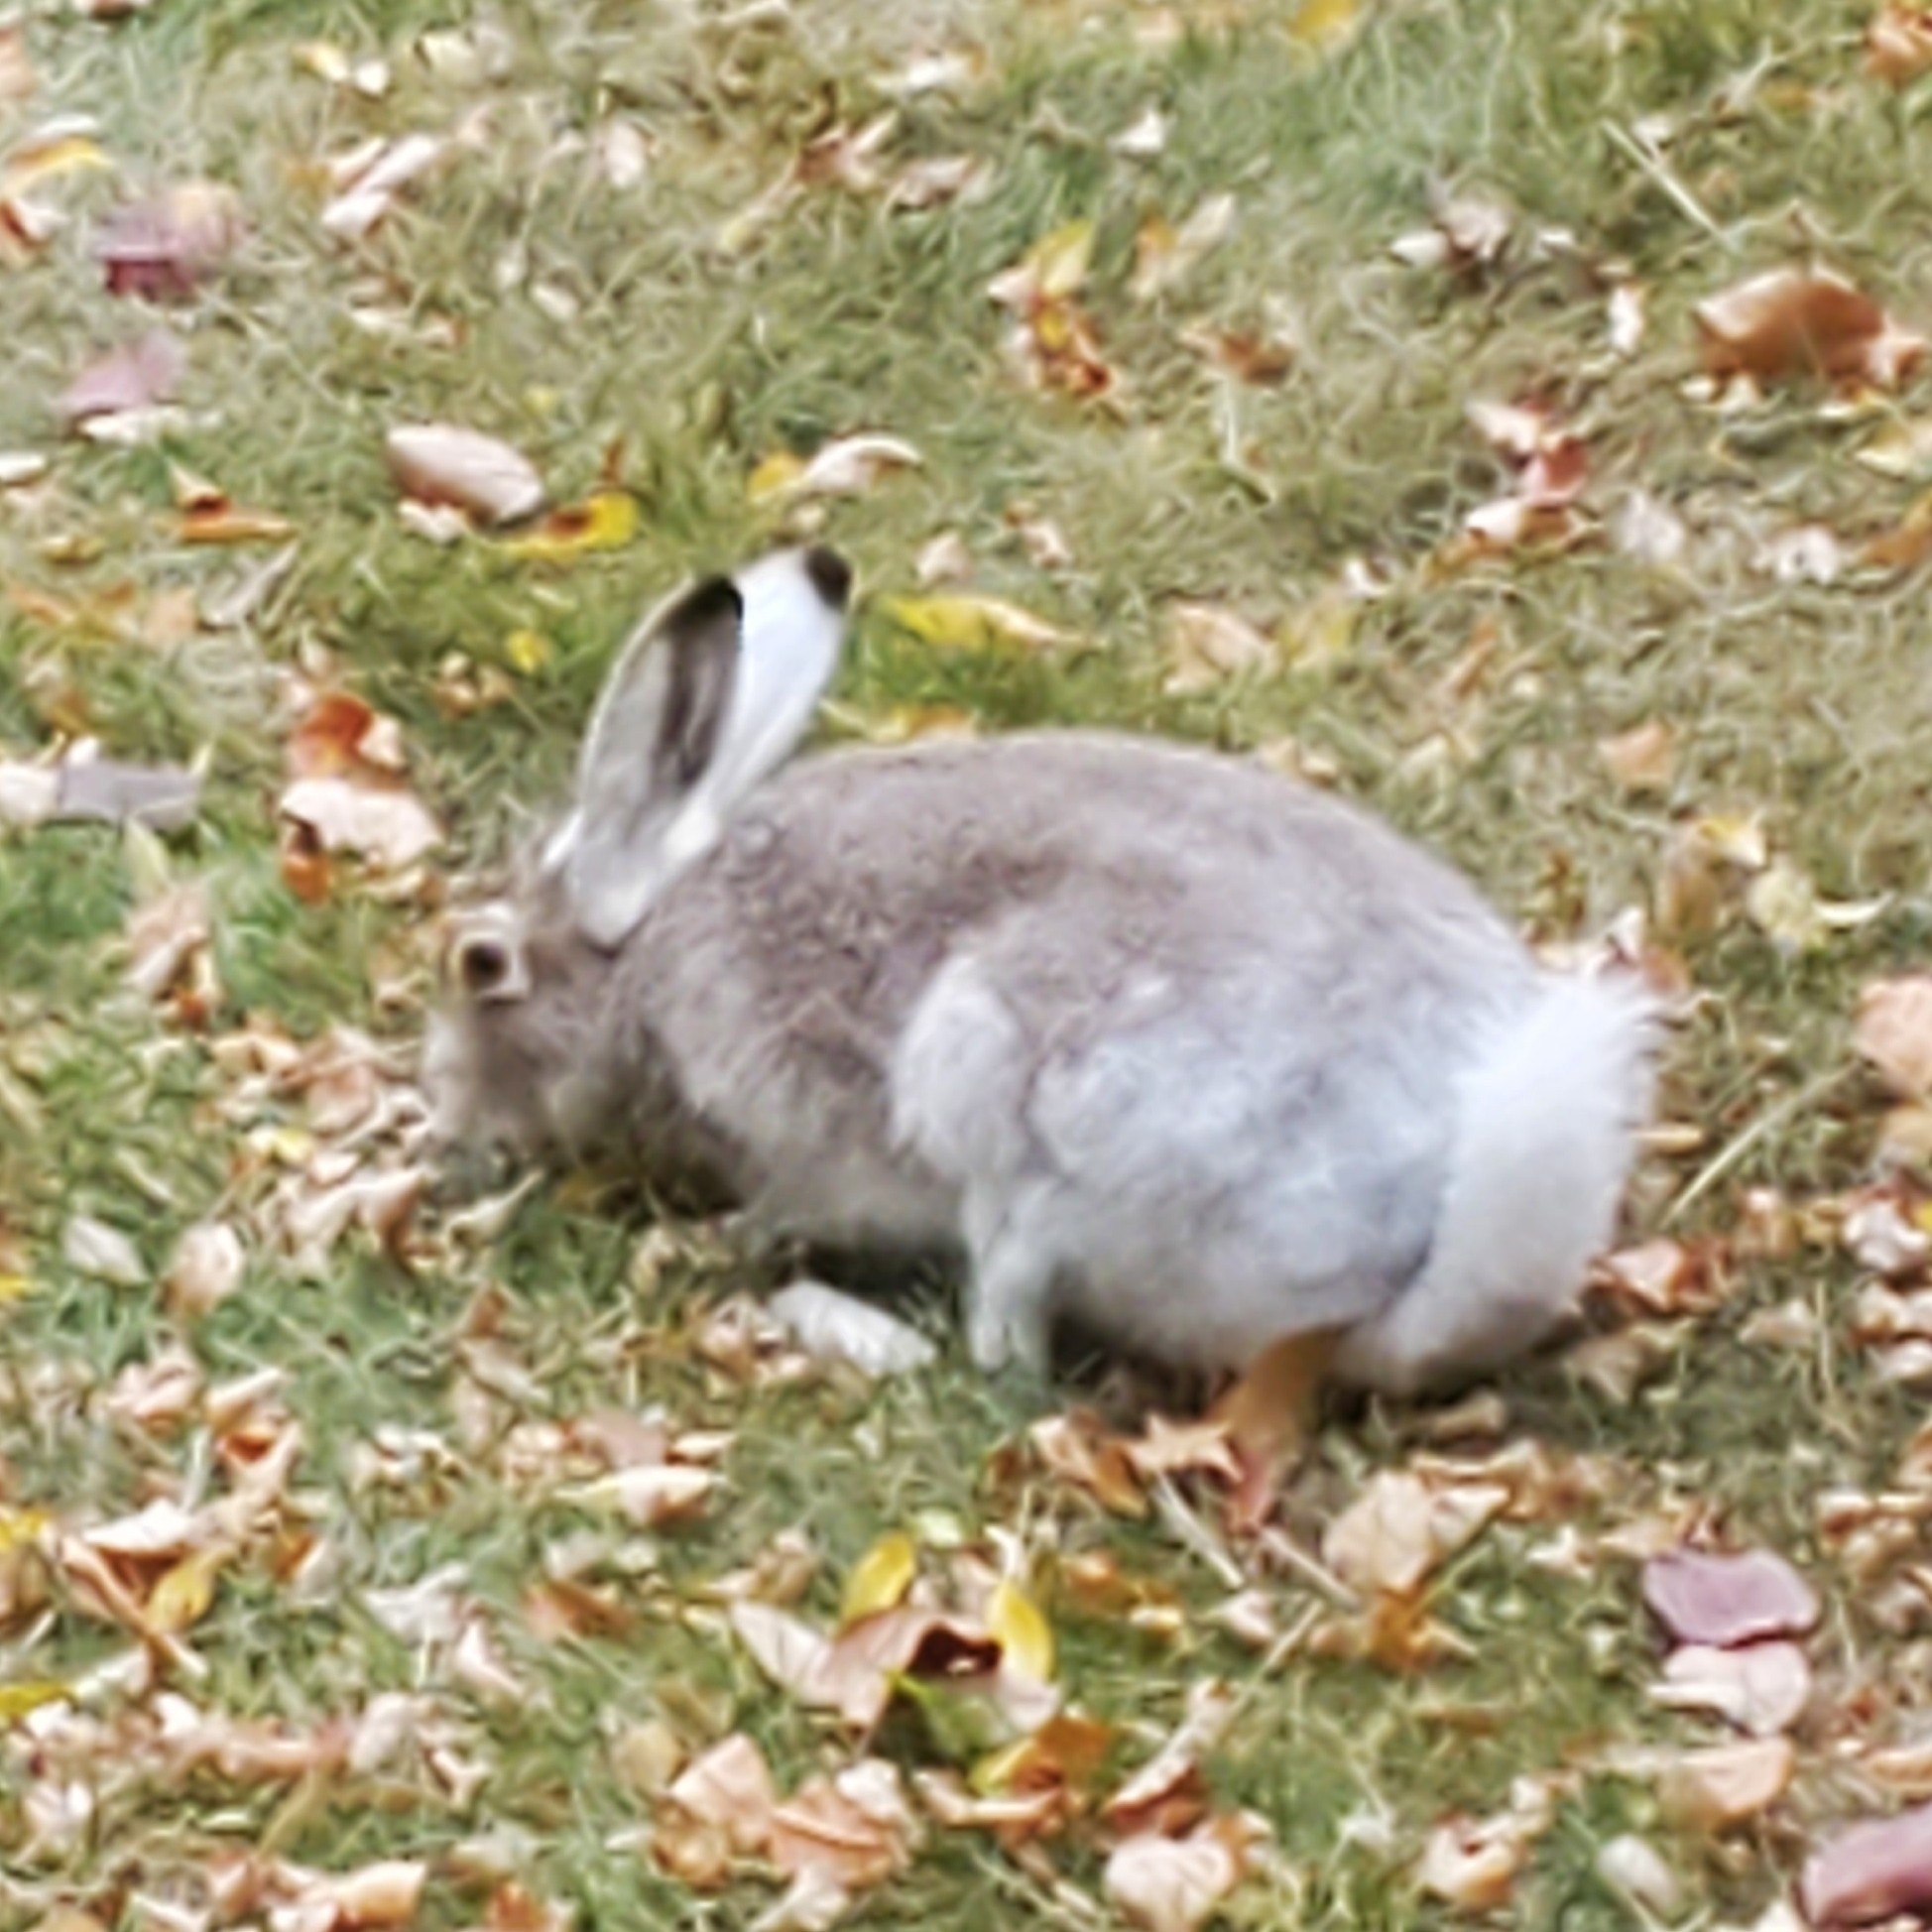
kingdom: Animalia
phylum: Chordata
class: Mammalia
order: Lagomorpha
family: Leporidae
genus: Lepus
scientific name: Lepus townsendii
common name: White-tailed jackrabbit
